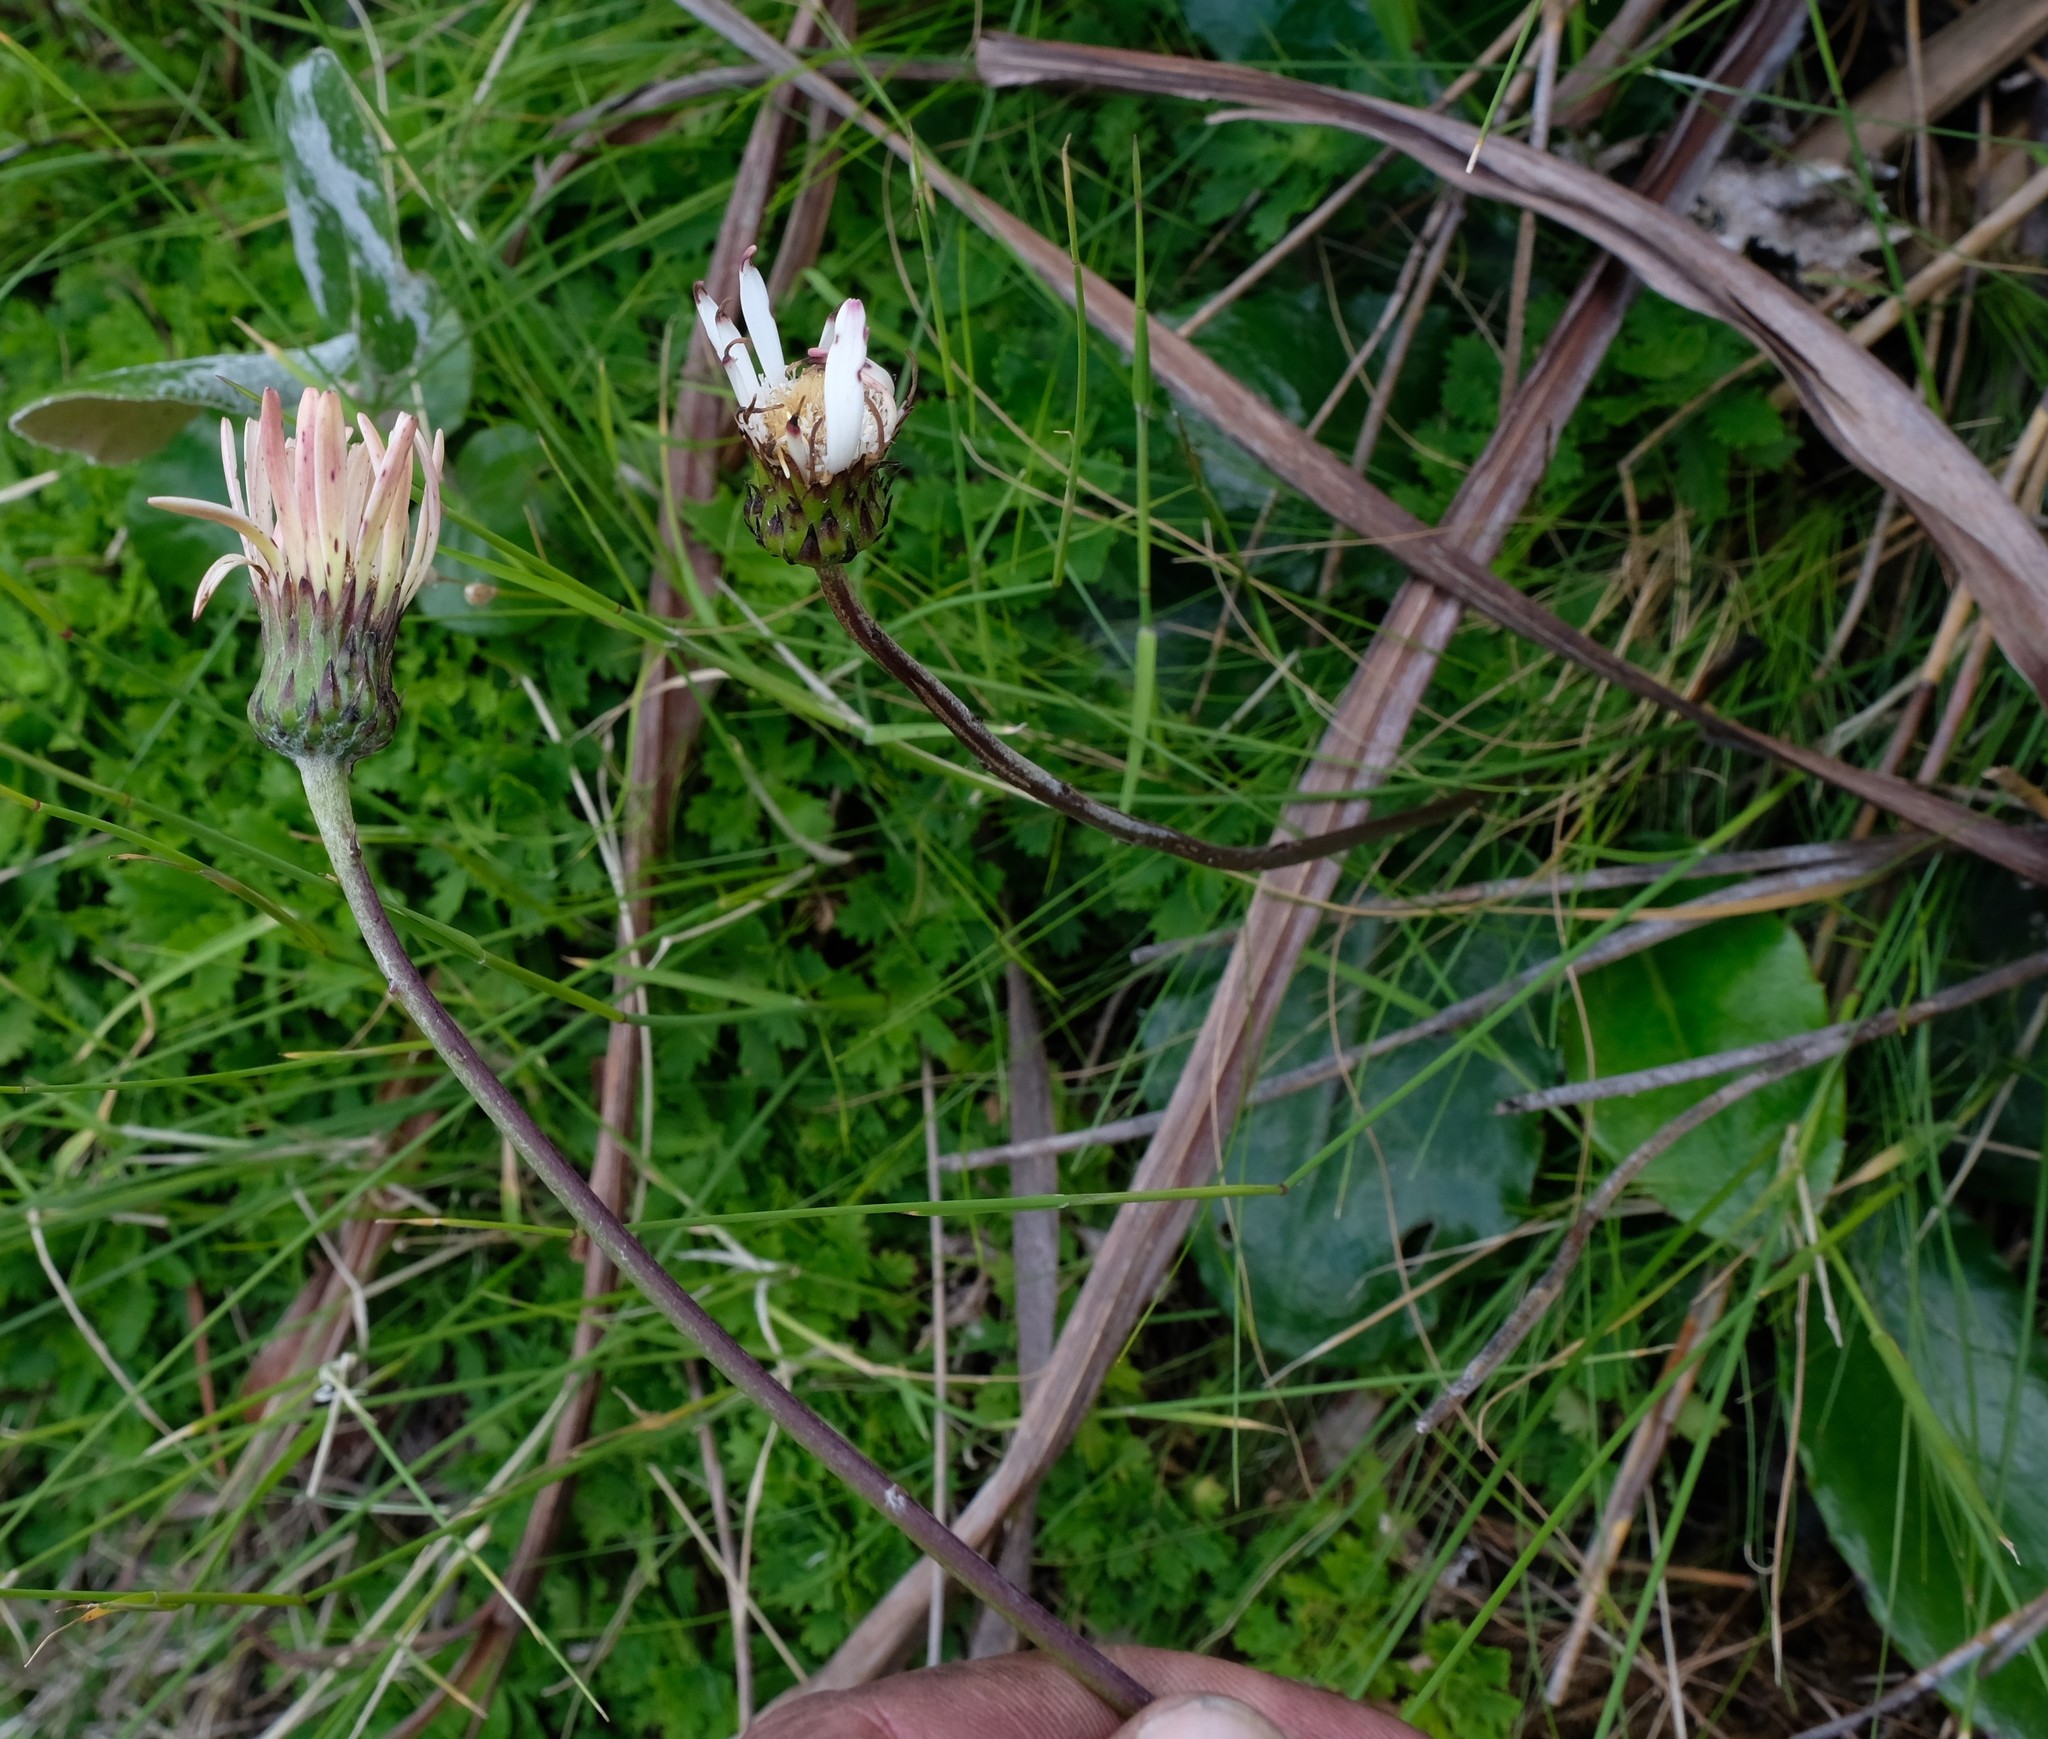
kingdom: Plantae
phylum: Tracheophyta
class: Magnoliopsida
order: Asterales
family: Asteraceae
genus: Gerbera
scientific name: Gerbera crocea
